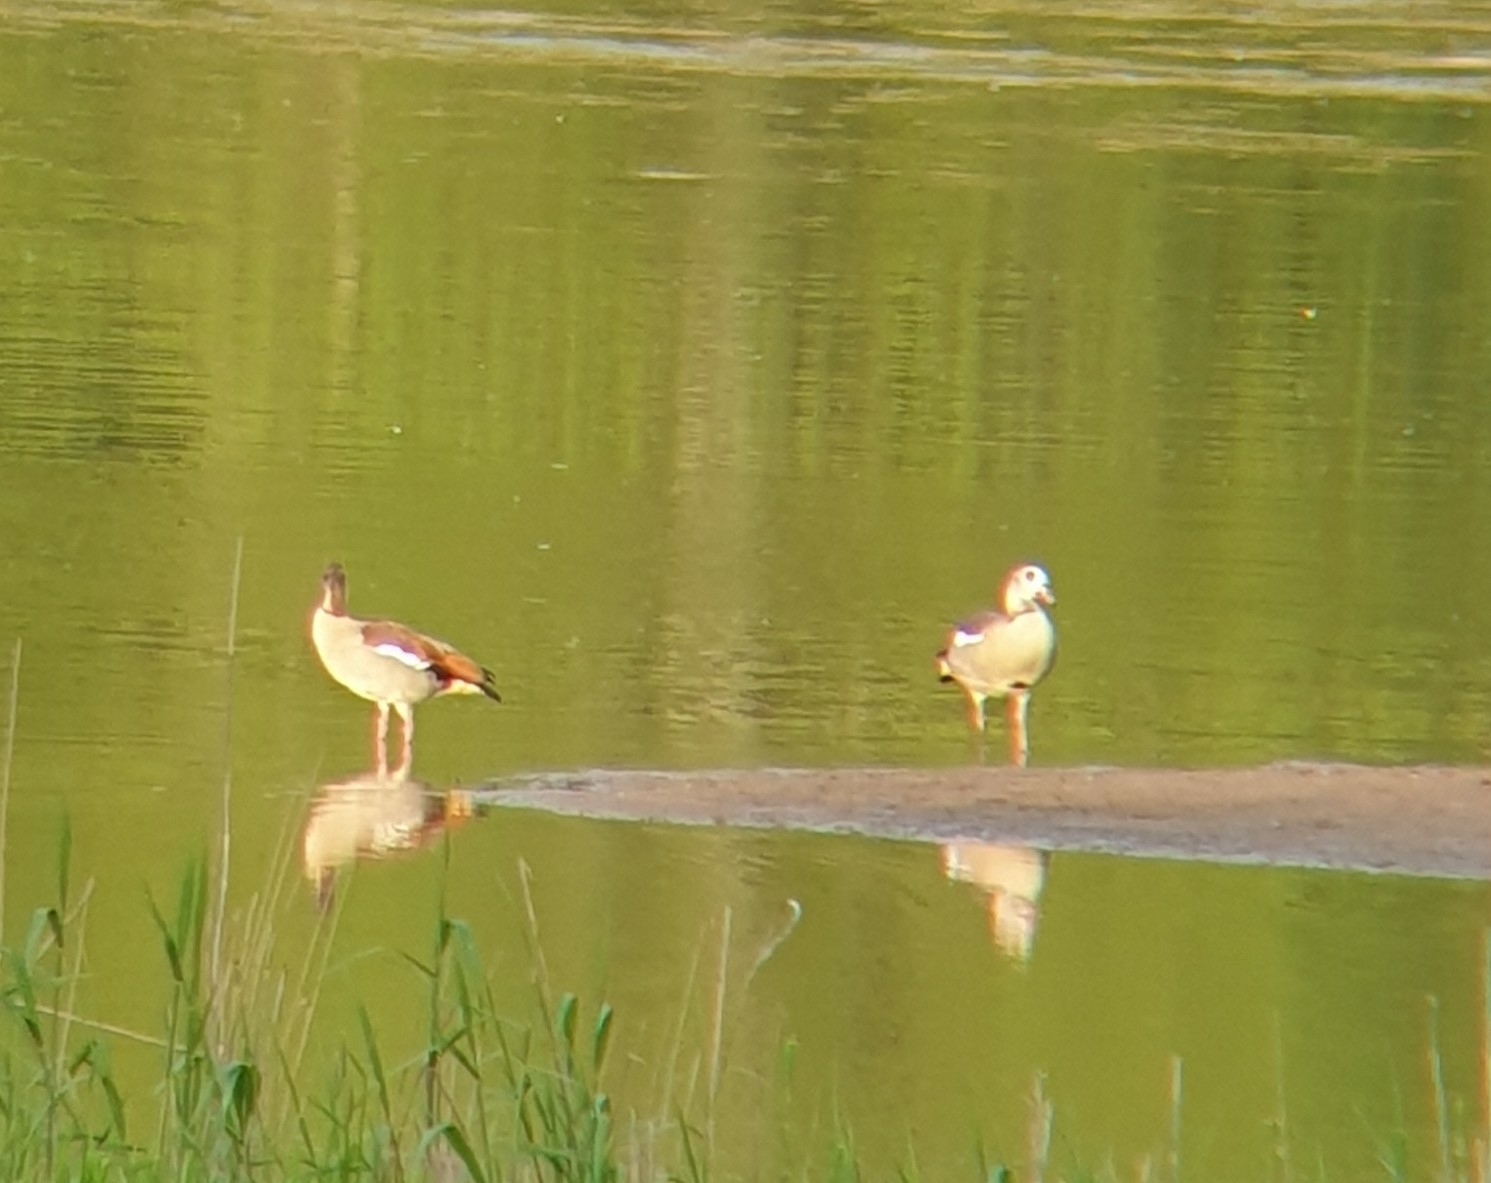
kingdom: Animalia
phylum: Chordata
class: Aves
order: Anseriformes
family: Anatidae
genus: Alopochen
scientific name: Alopochen aegyptiaca
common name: Egyptian goose
